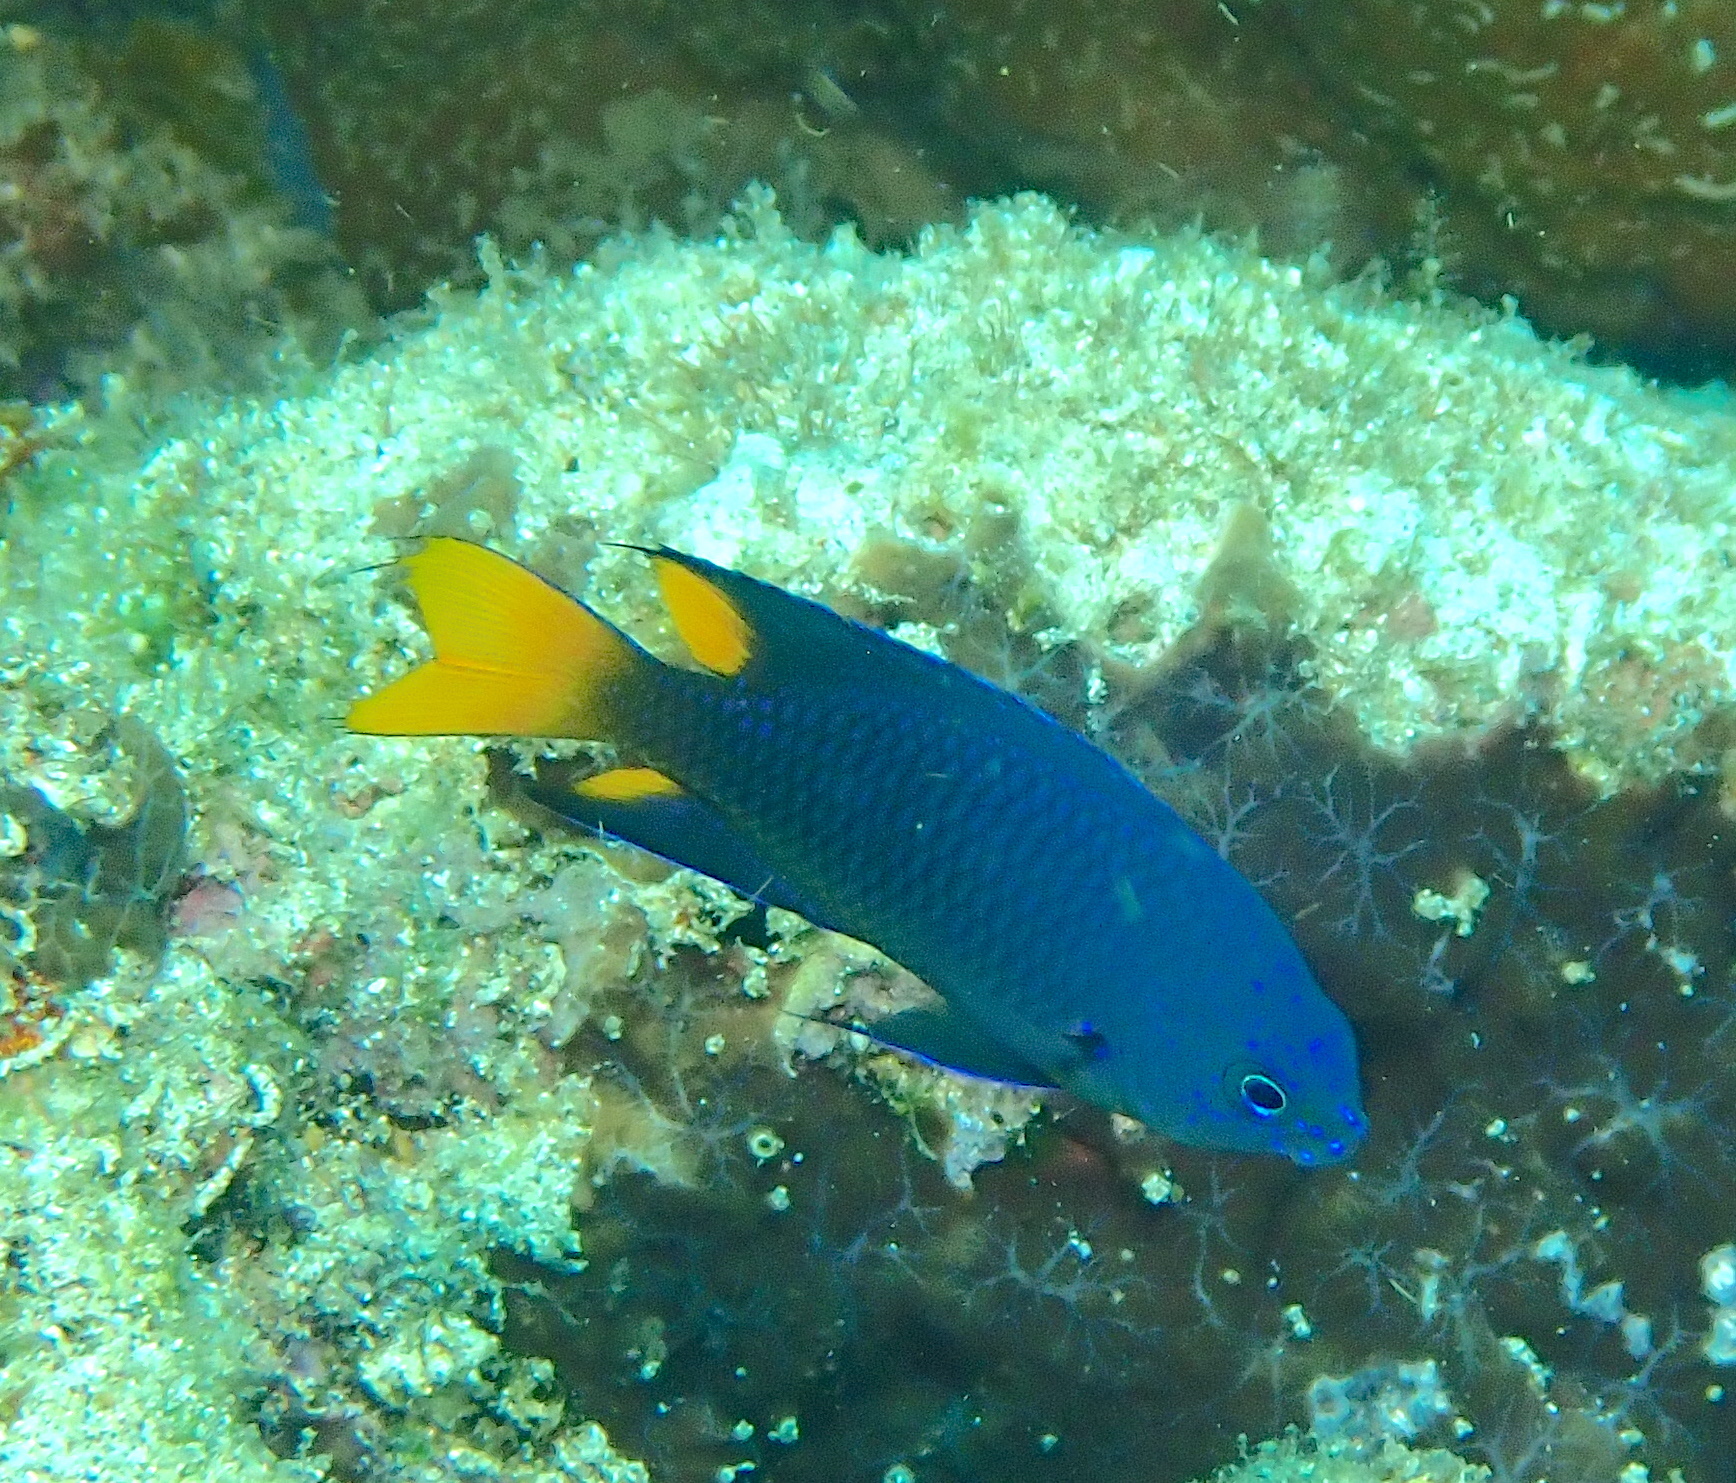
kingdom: Animalia
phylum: Chordata
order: Perciformes
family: Pomacentridae
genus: Pomacentrus
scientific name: Pomacentrus philippinus
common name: Philippine damsel
